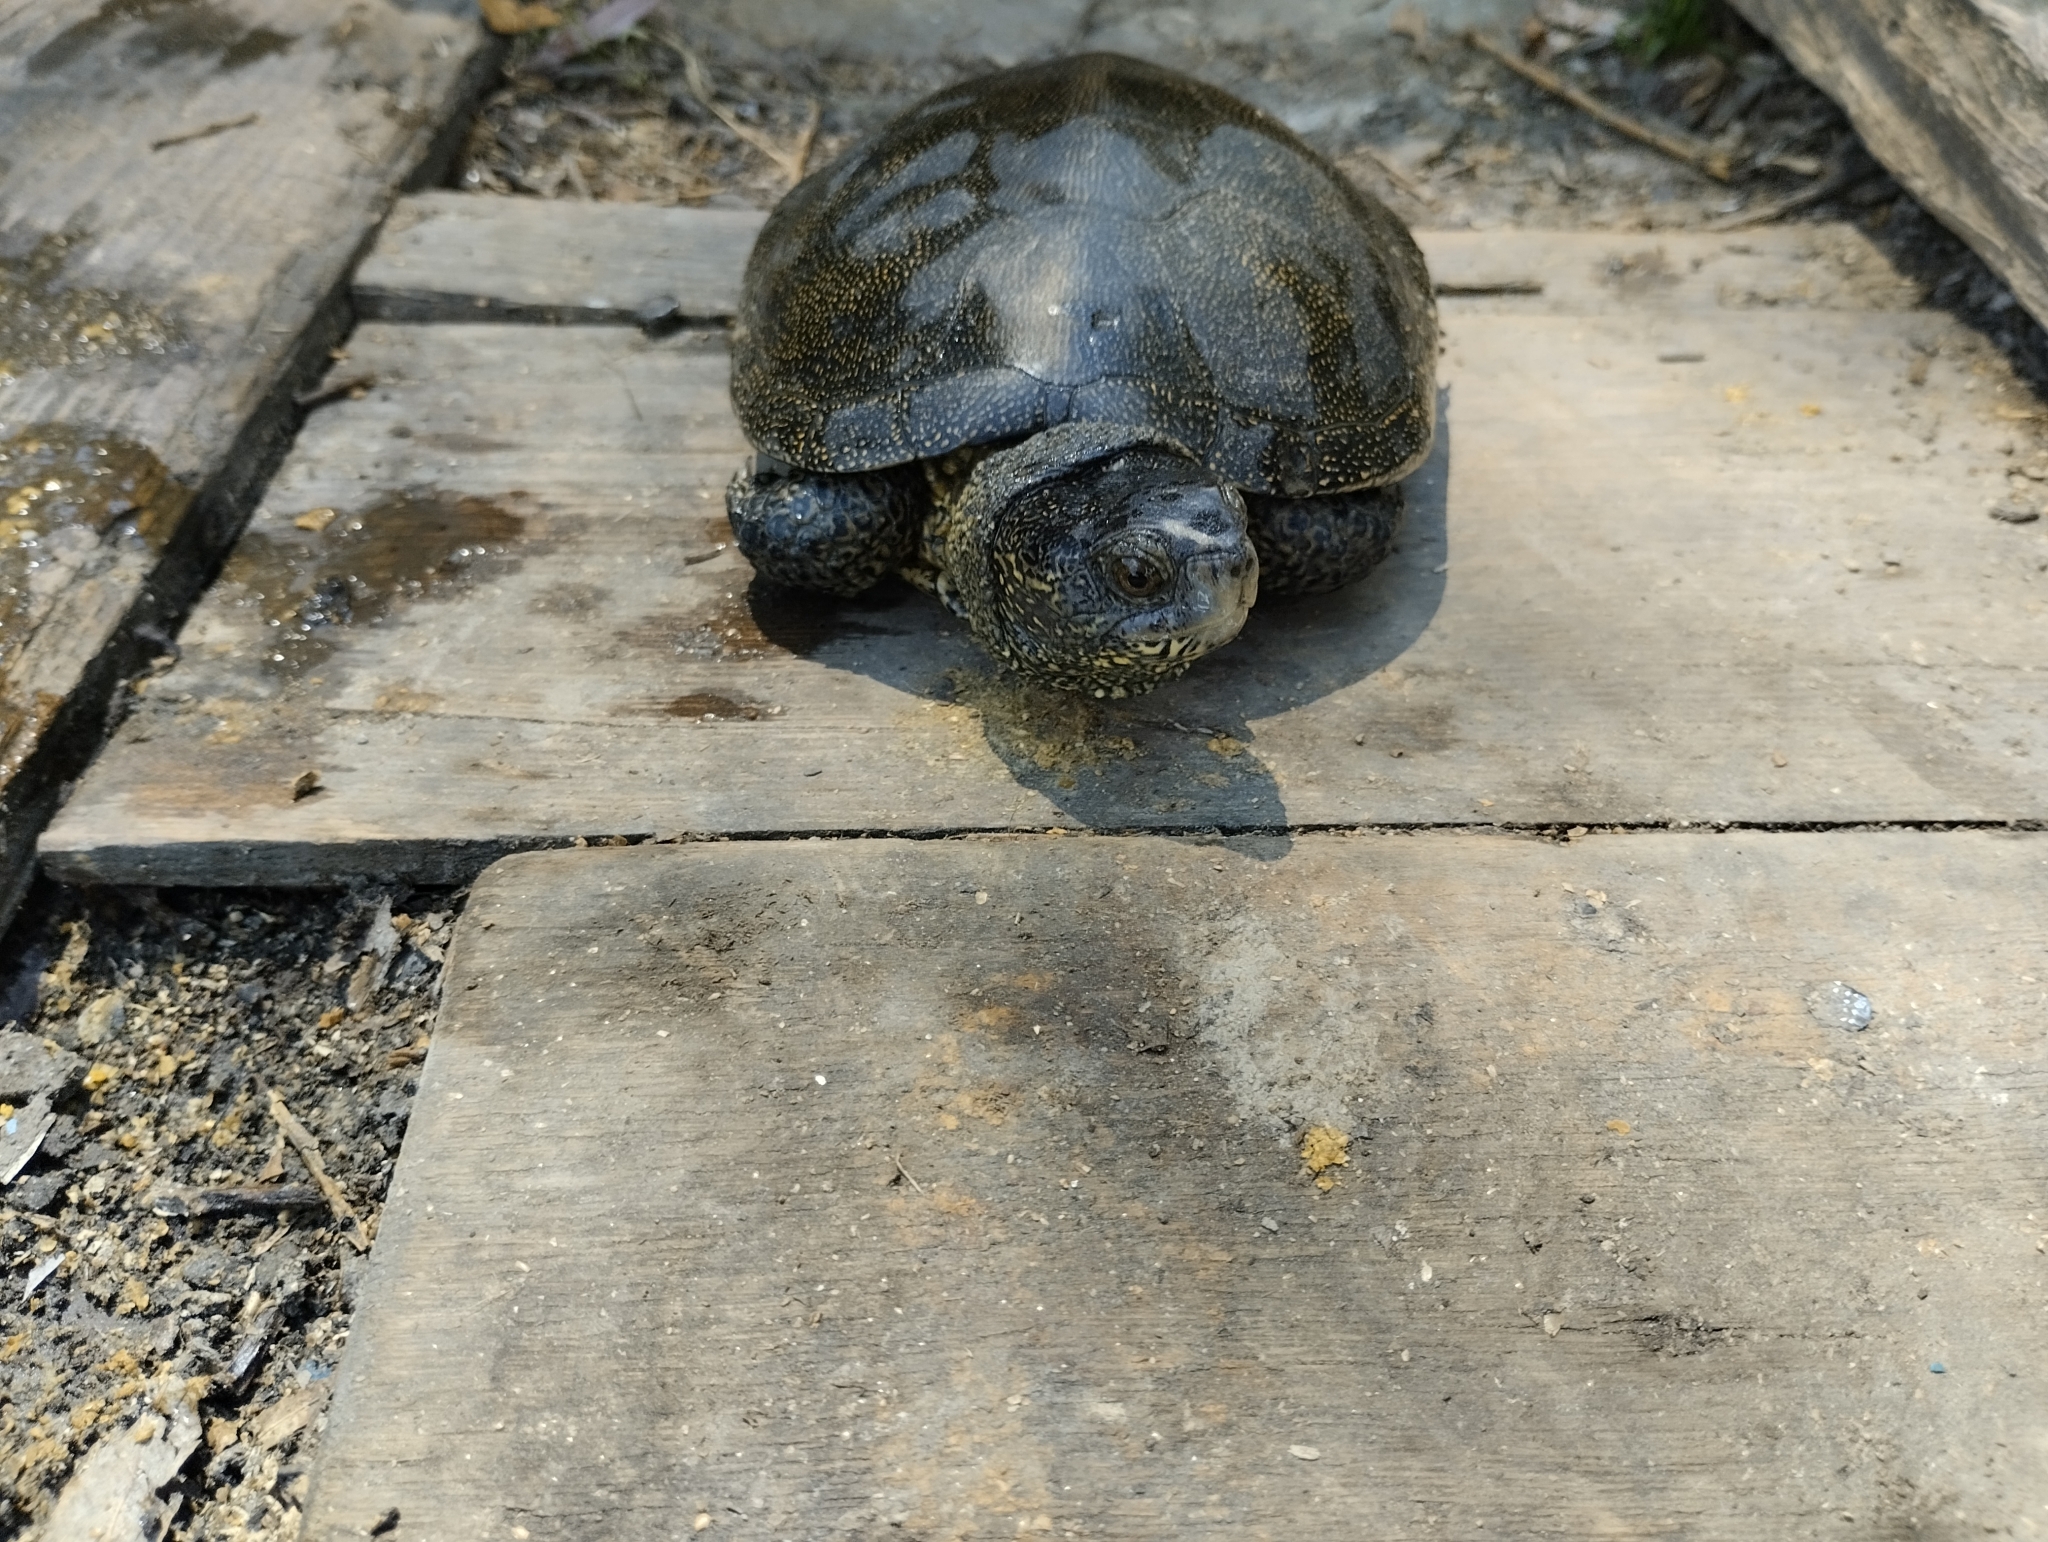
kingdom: Animalia
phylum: Chordata
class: Testudines
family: Emydidae
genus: Emys
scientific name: Emys orbicularis
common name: European pond turtle
